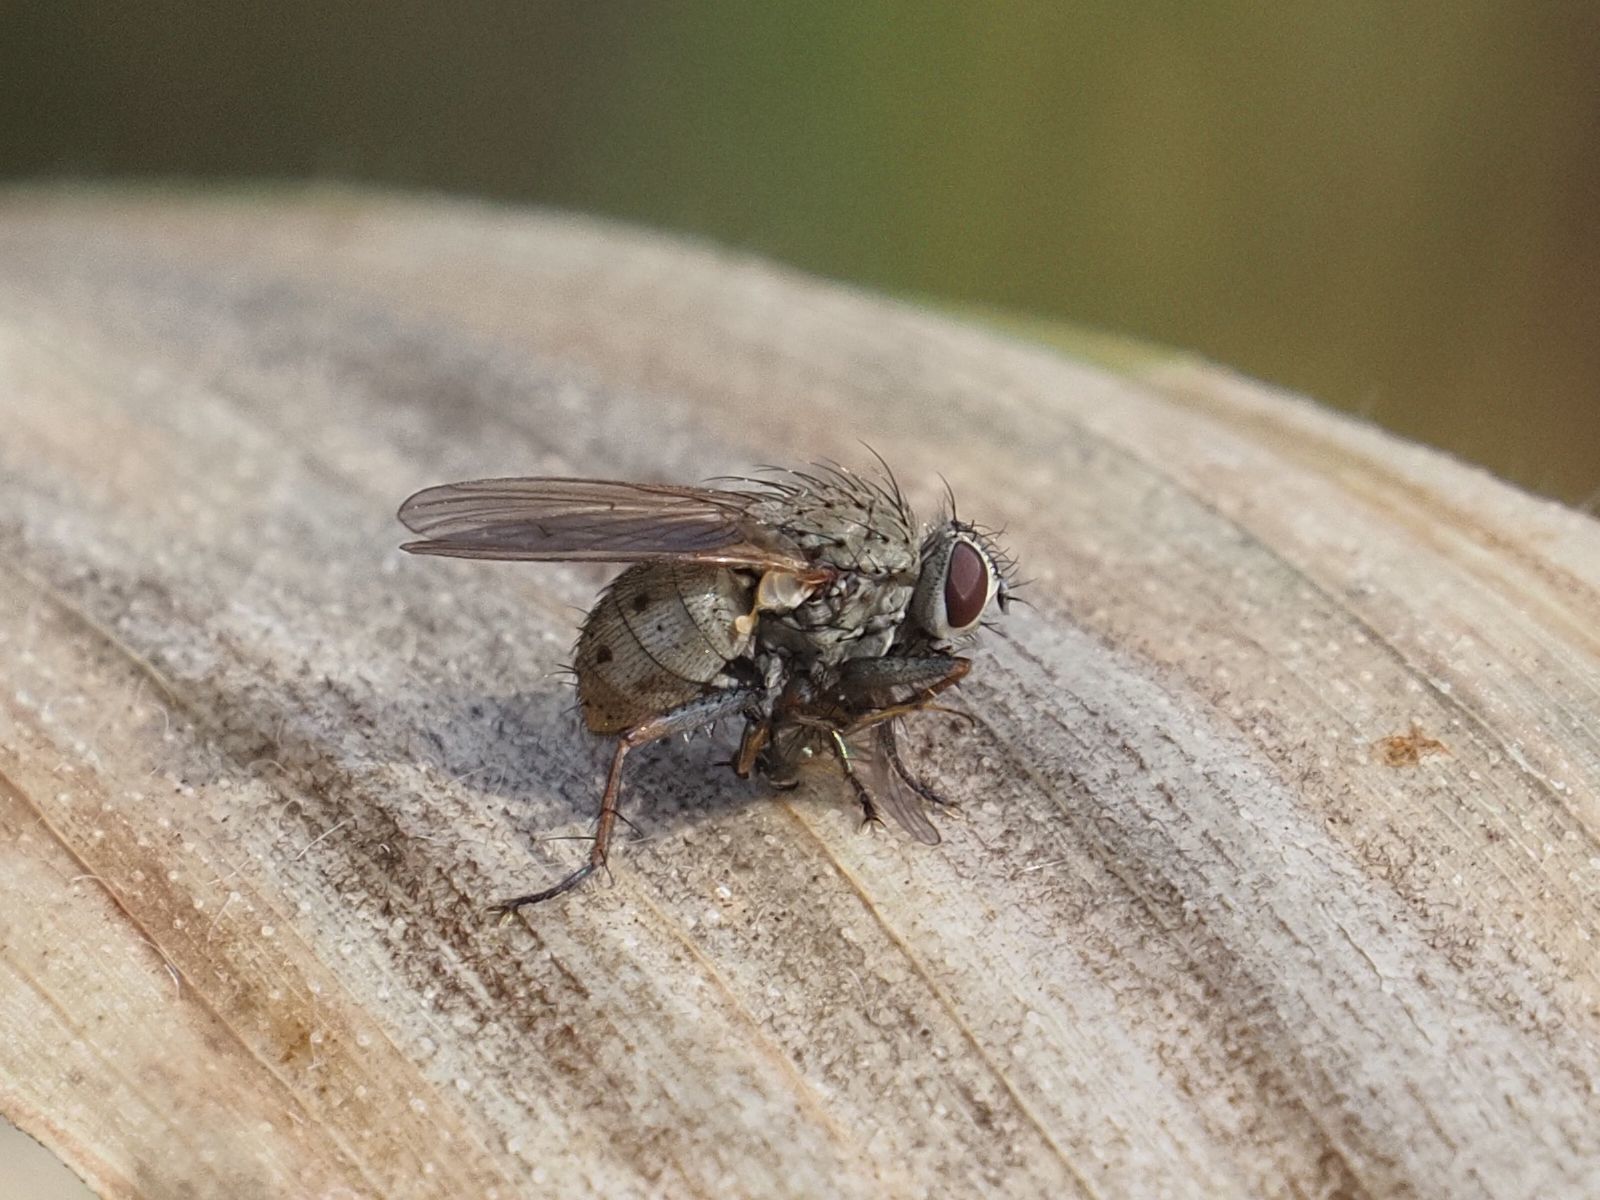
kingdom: Animalia
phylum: Arthropoda
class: Insecta
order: Diptera
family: Muscidae
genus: Coenosia
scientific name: Coenosia tigrina
